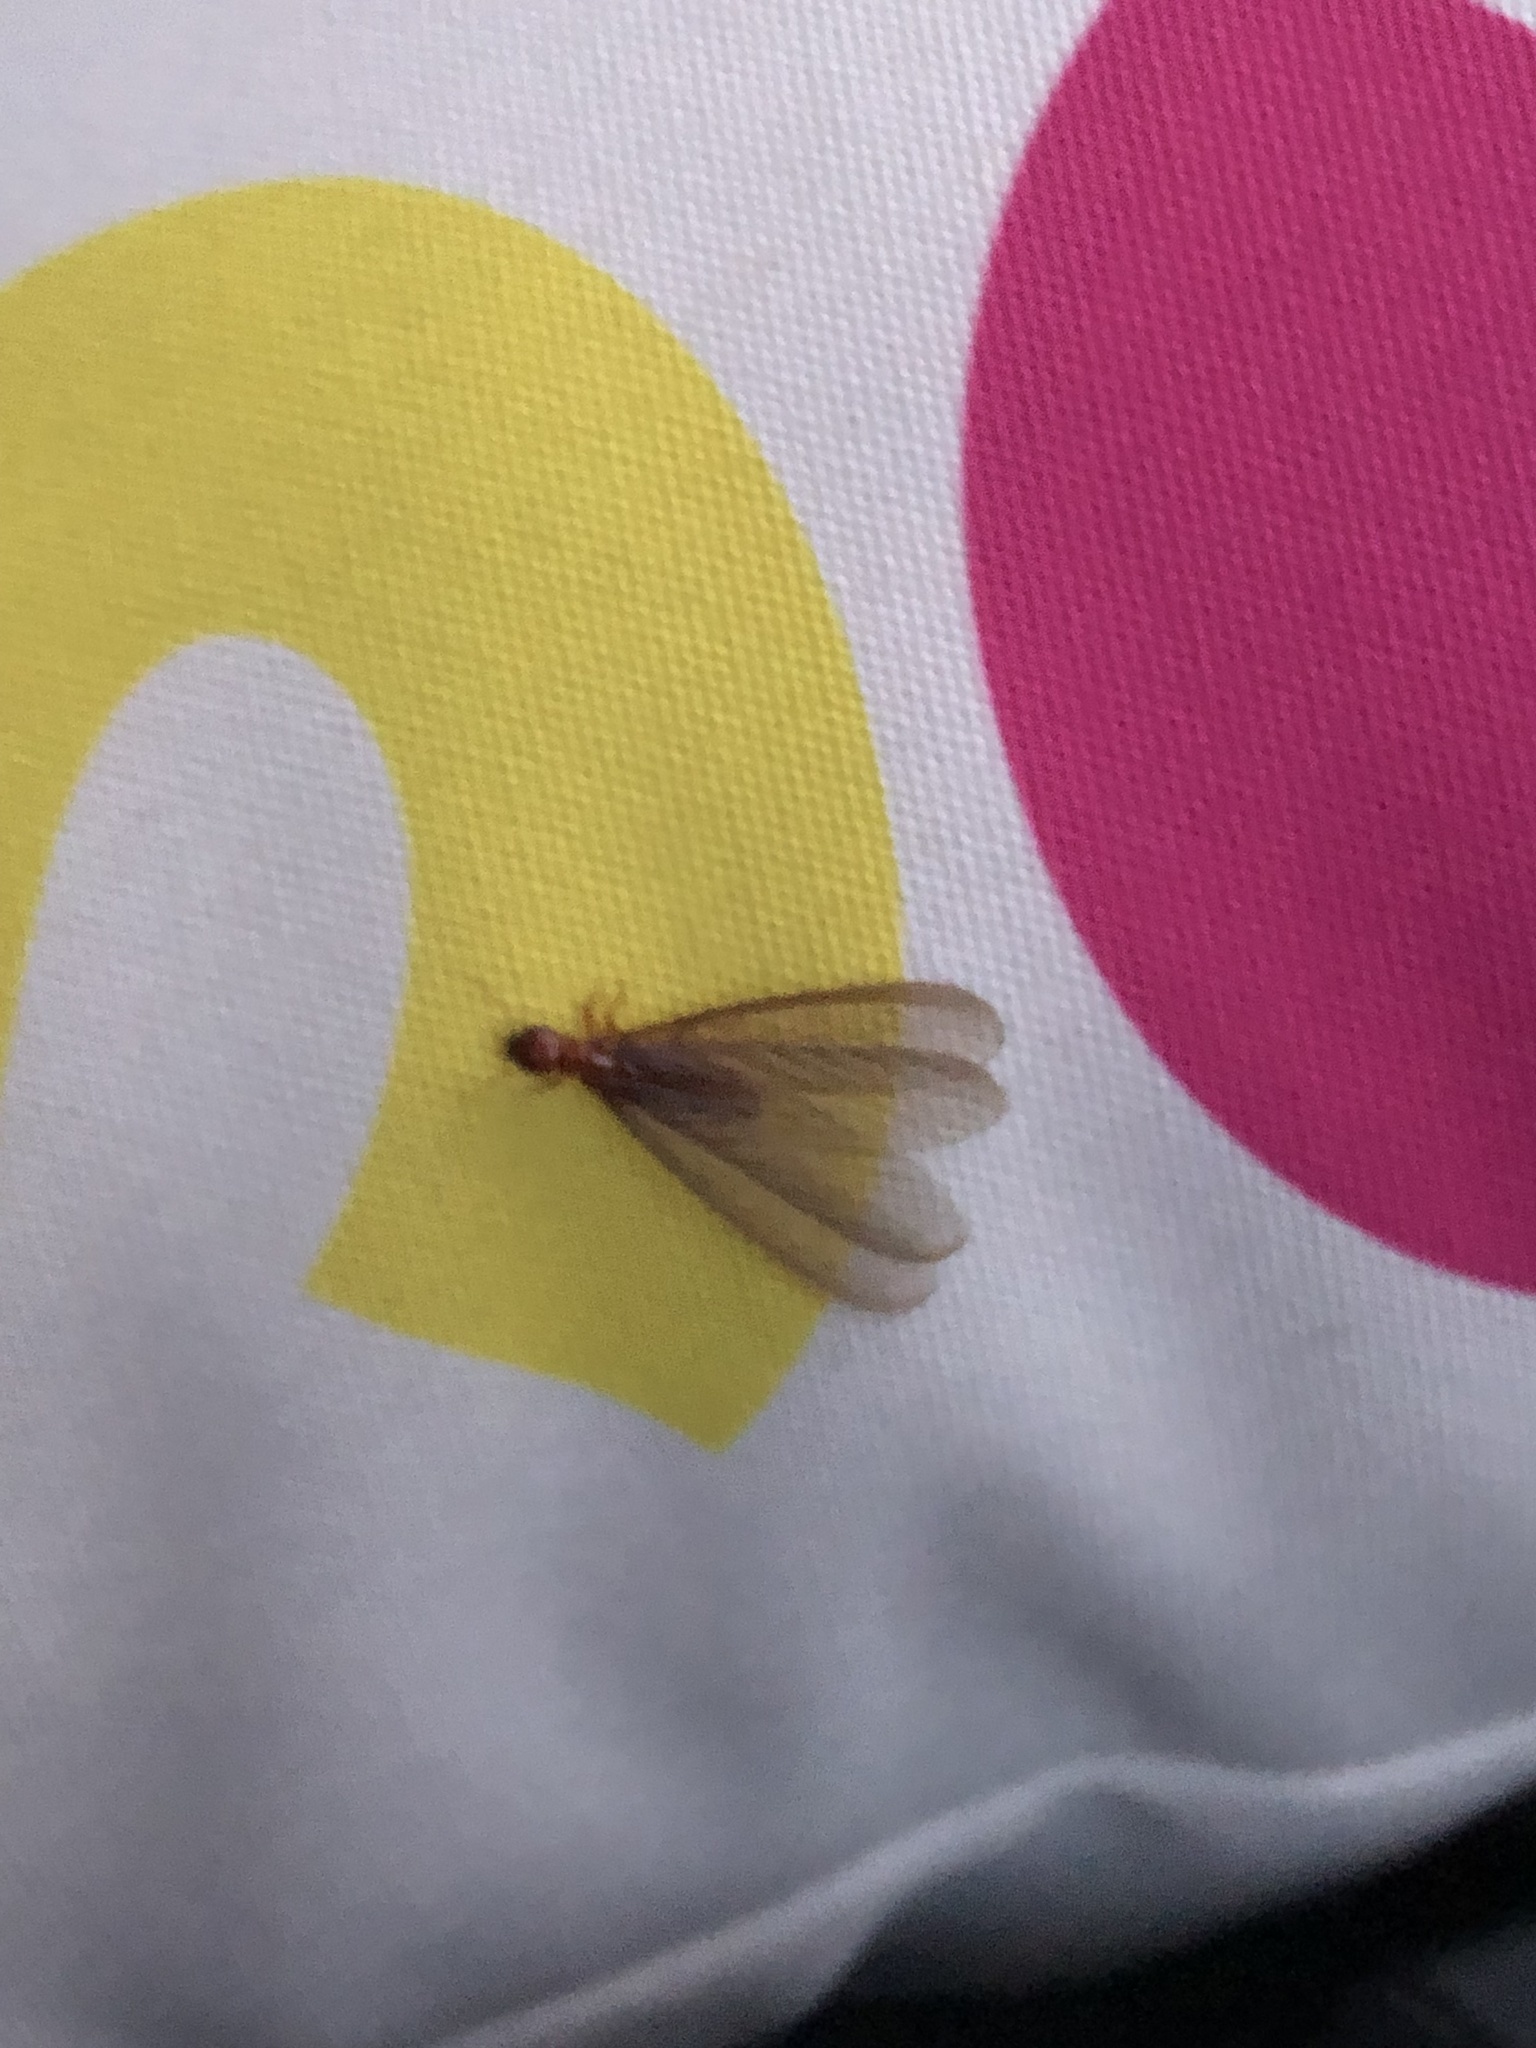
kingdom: Animalia
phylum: Arthropoda
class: Insecta
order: Blattodea
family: Archotermopsidae
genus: Zootermopsis
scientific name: Zootermopsis angusticollis
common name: Rottenwood termite
